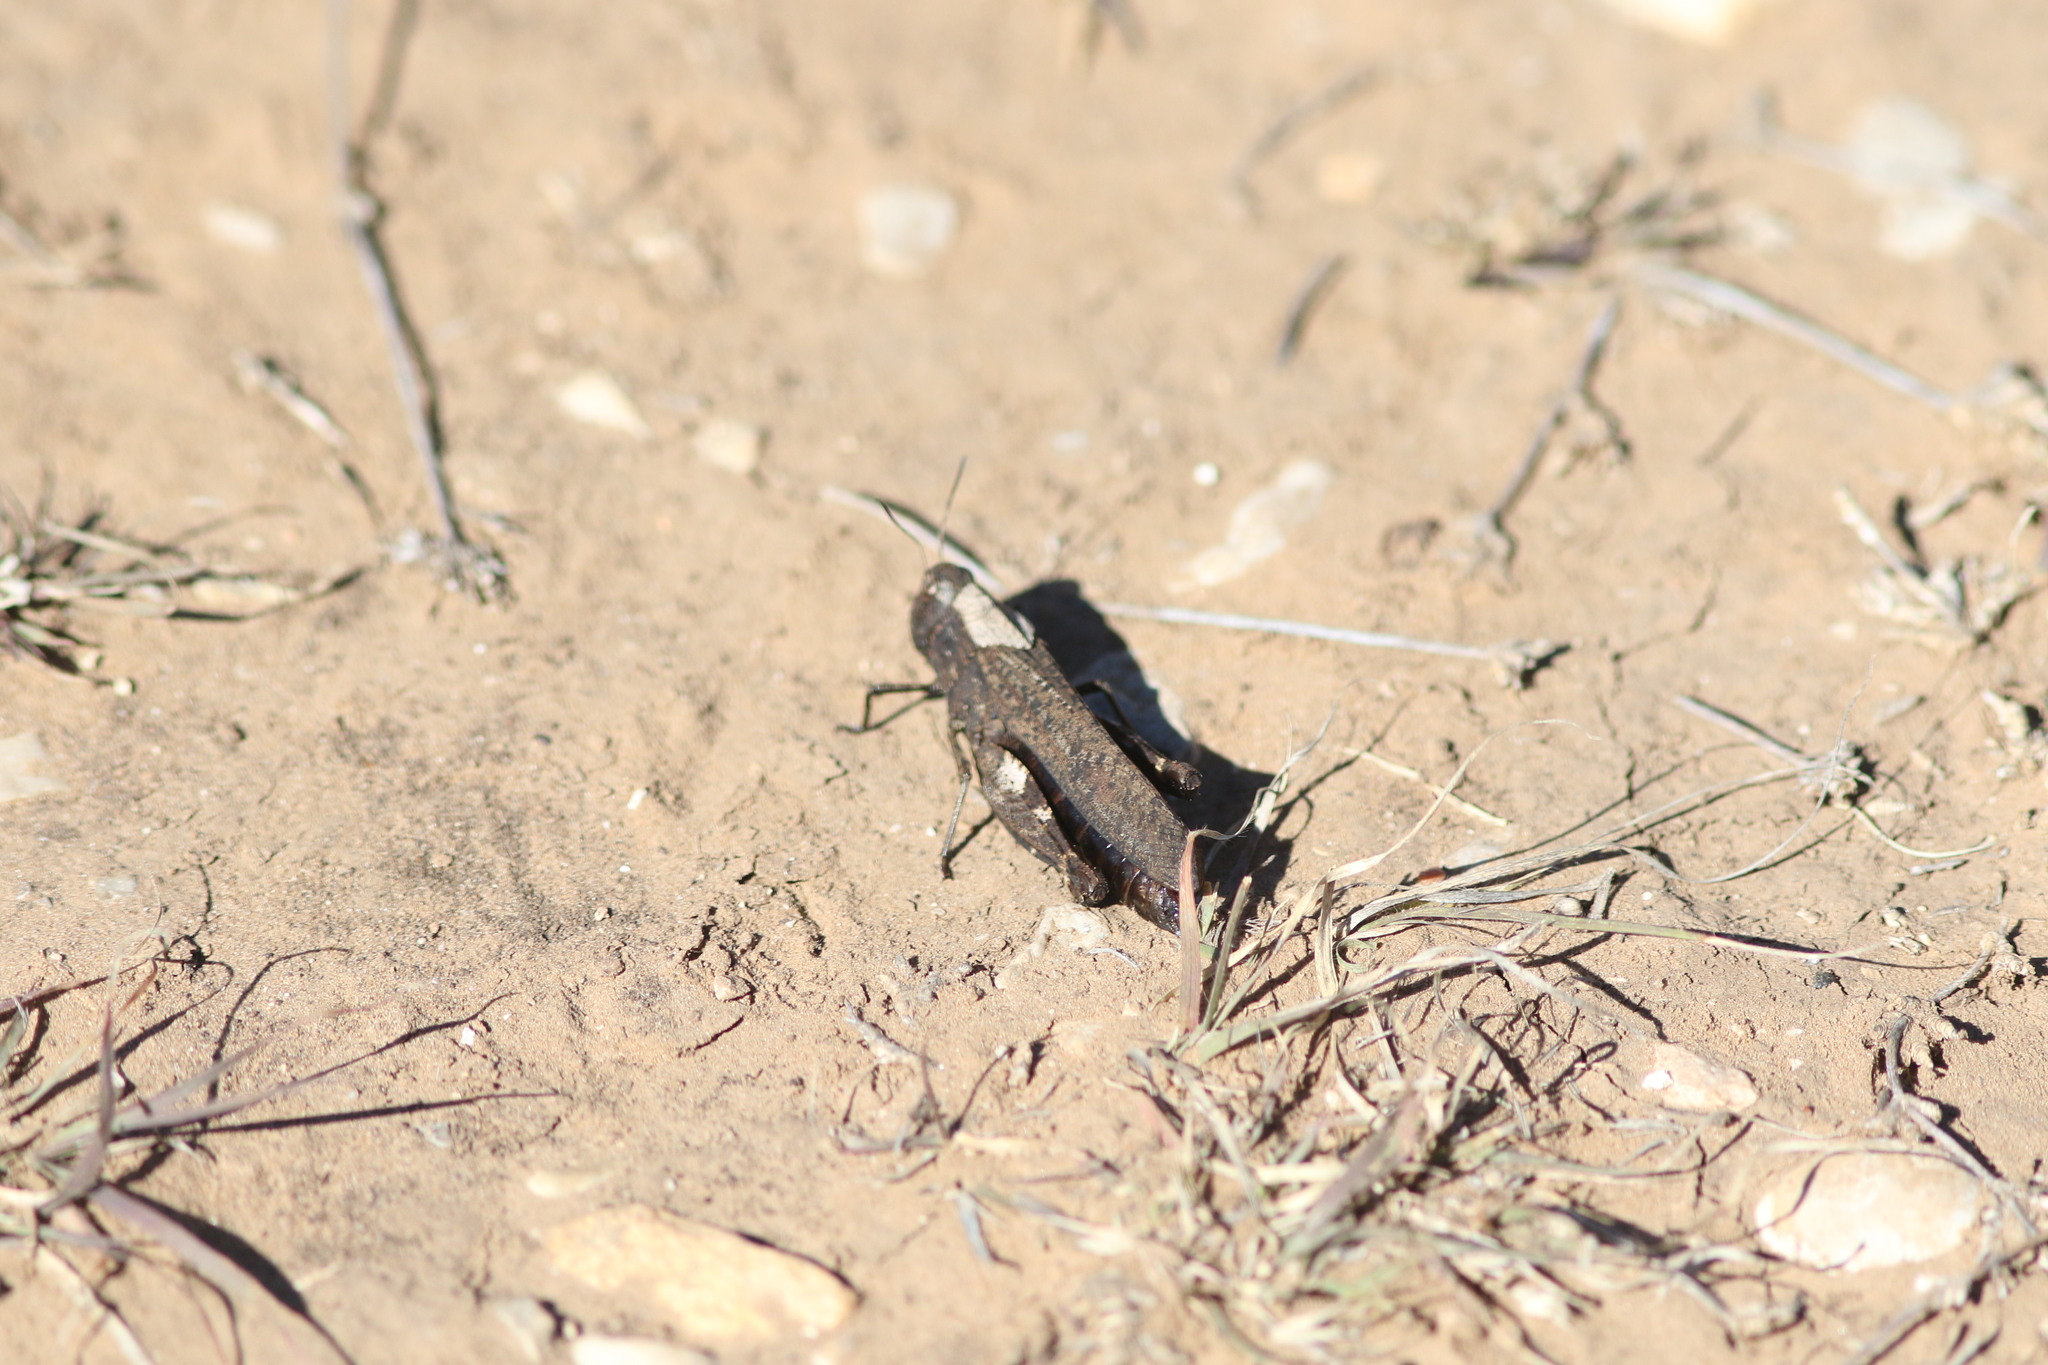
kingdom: Animalia
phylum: Arthropoda
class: Insecta
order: Orthoptera
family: Acrididae
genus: Arphia
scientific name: Arphia pseudo-nietana
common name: Red-winged grasshopper
